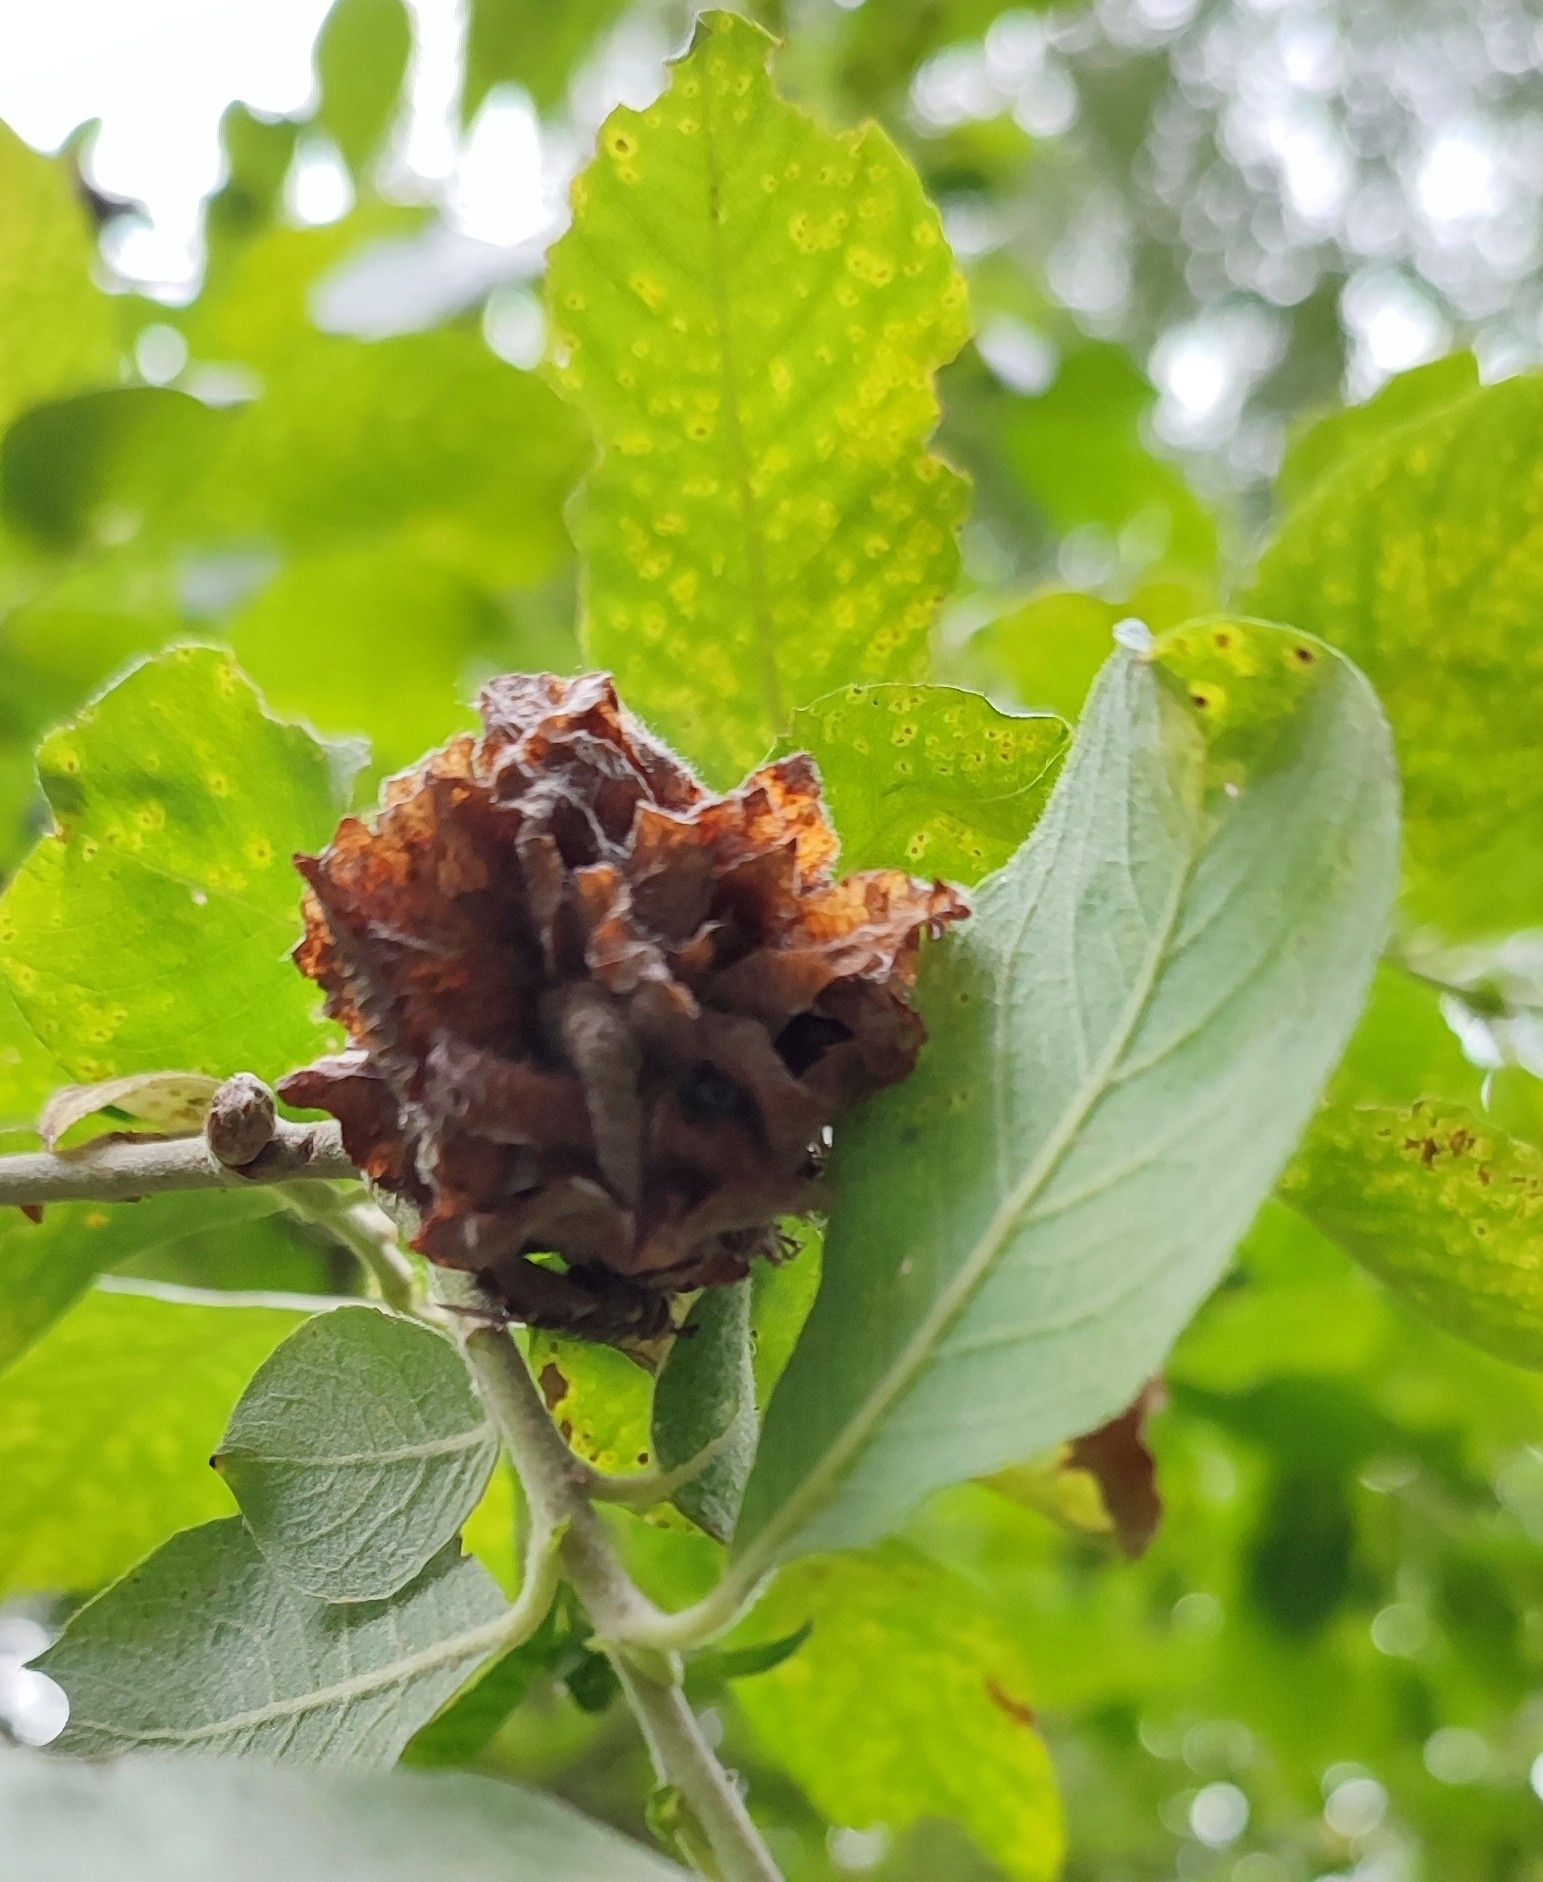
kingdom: Animalia
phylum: Arthropoda
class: Insecta
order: Diptera
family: Cecidomyiidae
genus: Rabdophaga
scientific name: Rabdophaga rosaria
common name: Willow rose gall midge
